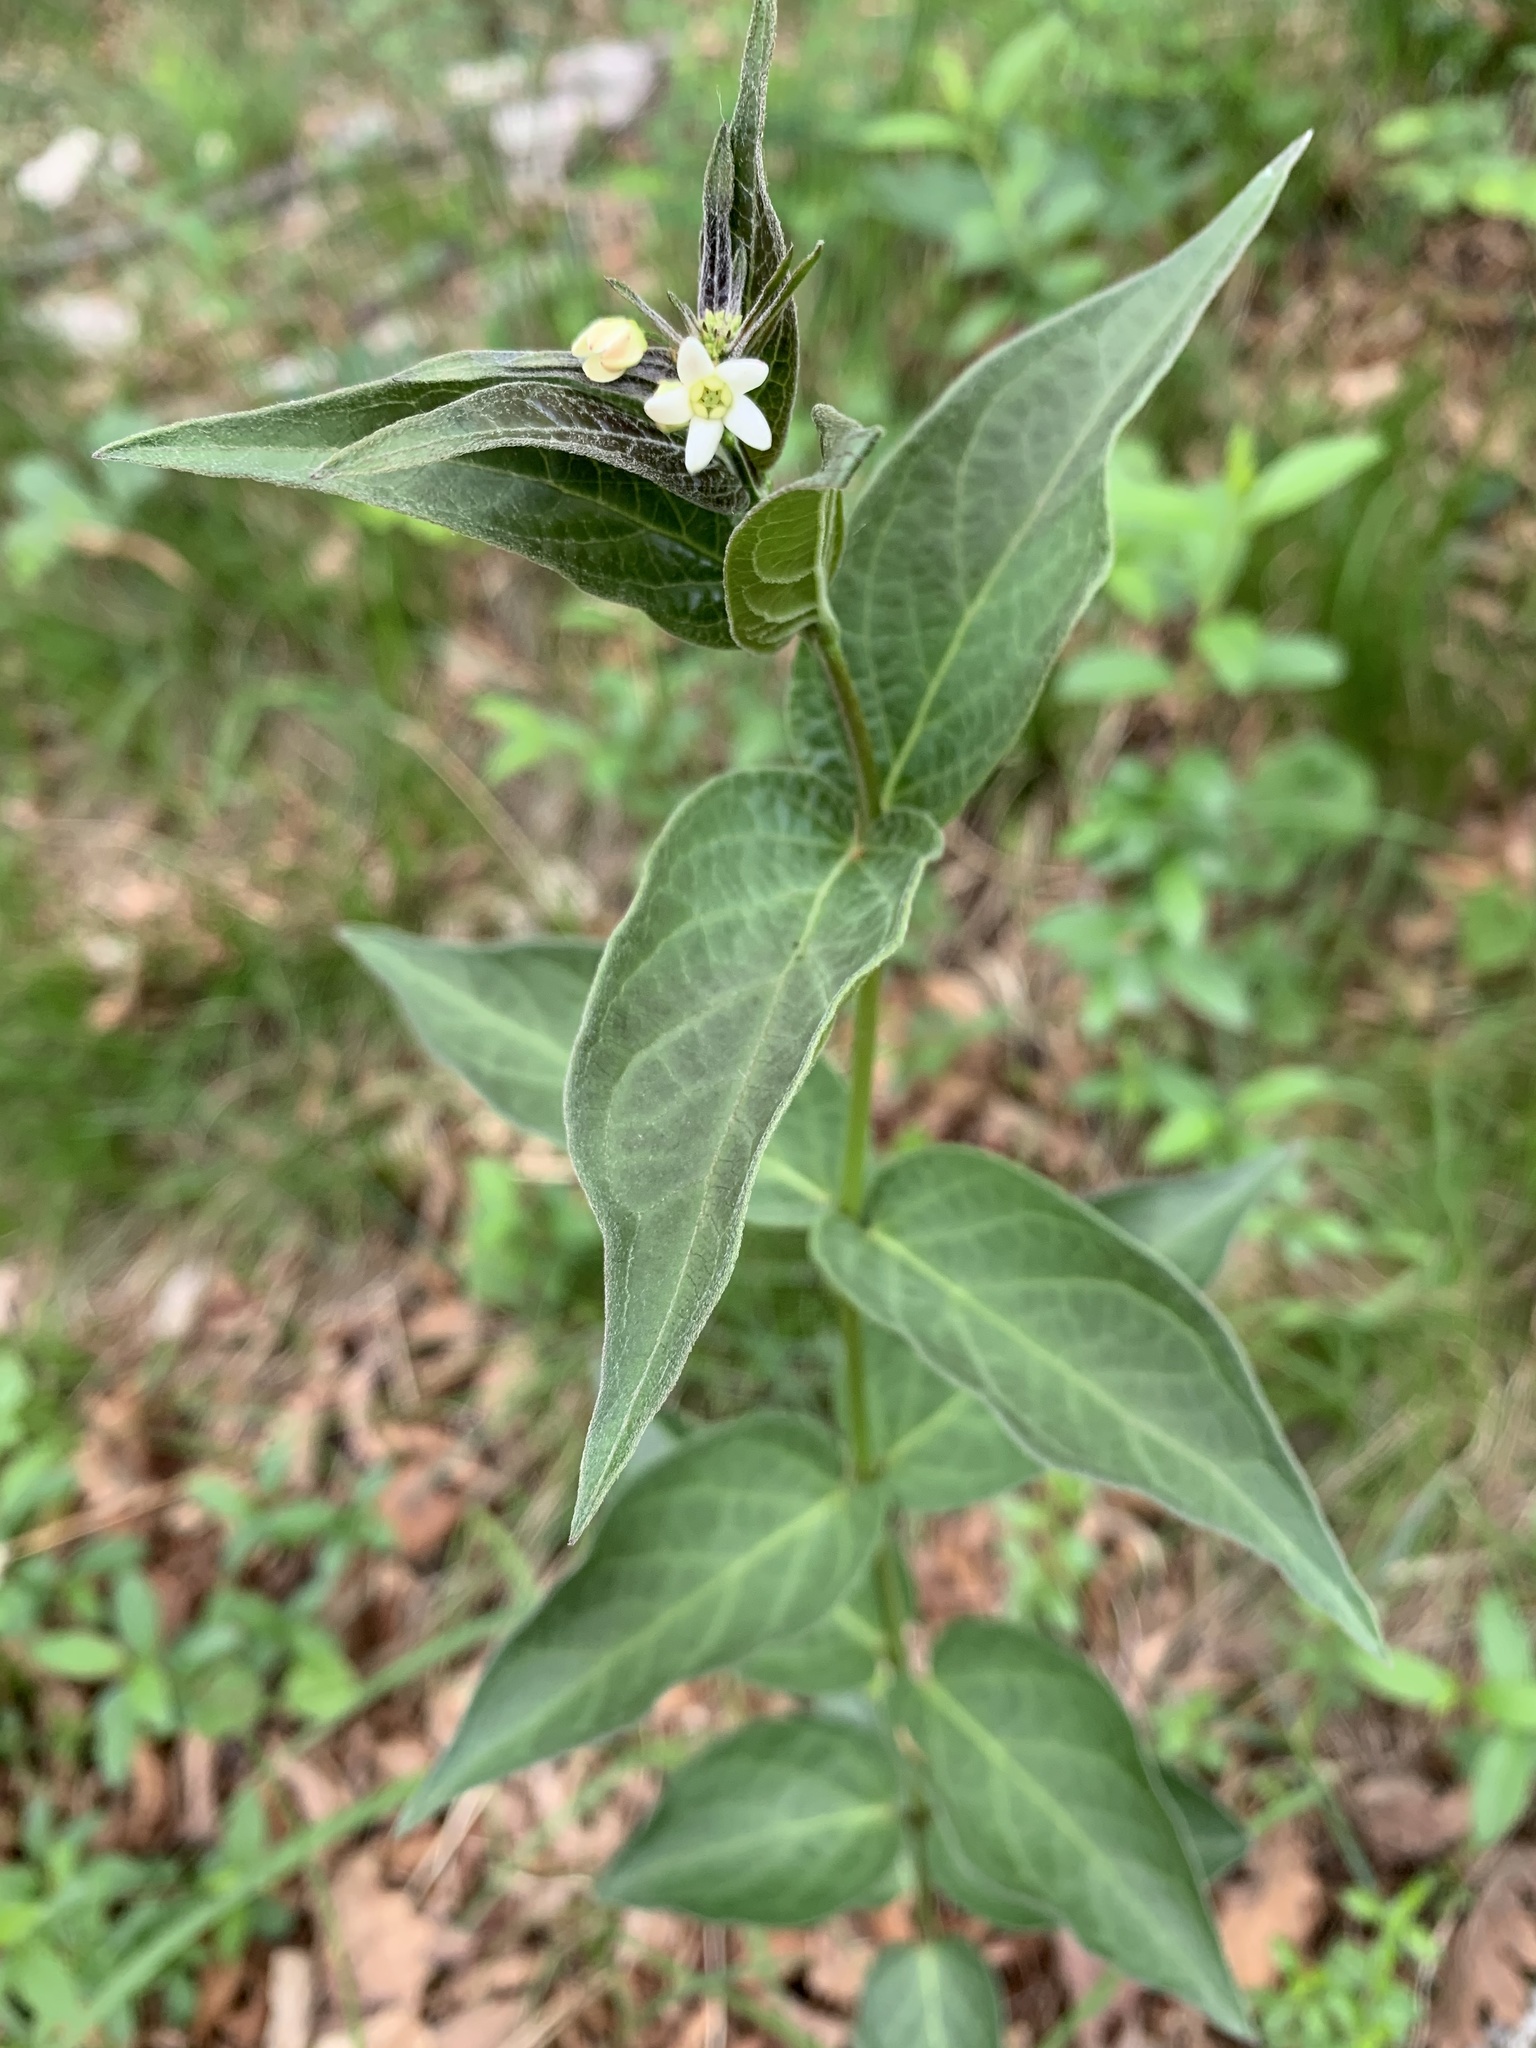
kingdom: Plantae
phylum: Tracheophyta
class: Magnoliopsida
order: Gentianales
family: Apocynaceae
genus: Vincetoxicum
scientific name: Vincetoxicum hirundinaria
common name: White swallowwort
